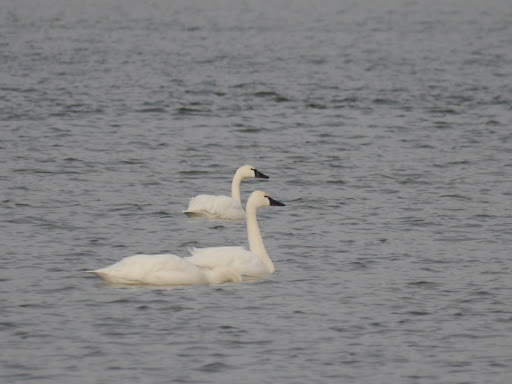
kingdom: Animalia
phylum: Chordata
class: Aves
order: Anseriformes
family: Anatidae
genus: Cygnus
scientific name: Cygnus columbianus
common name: Tundra swan
